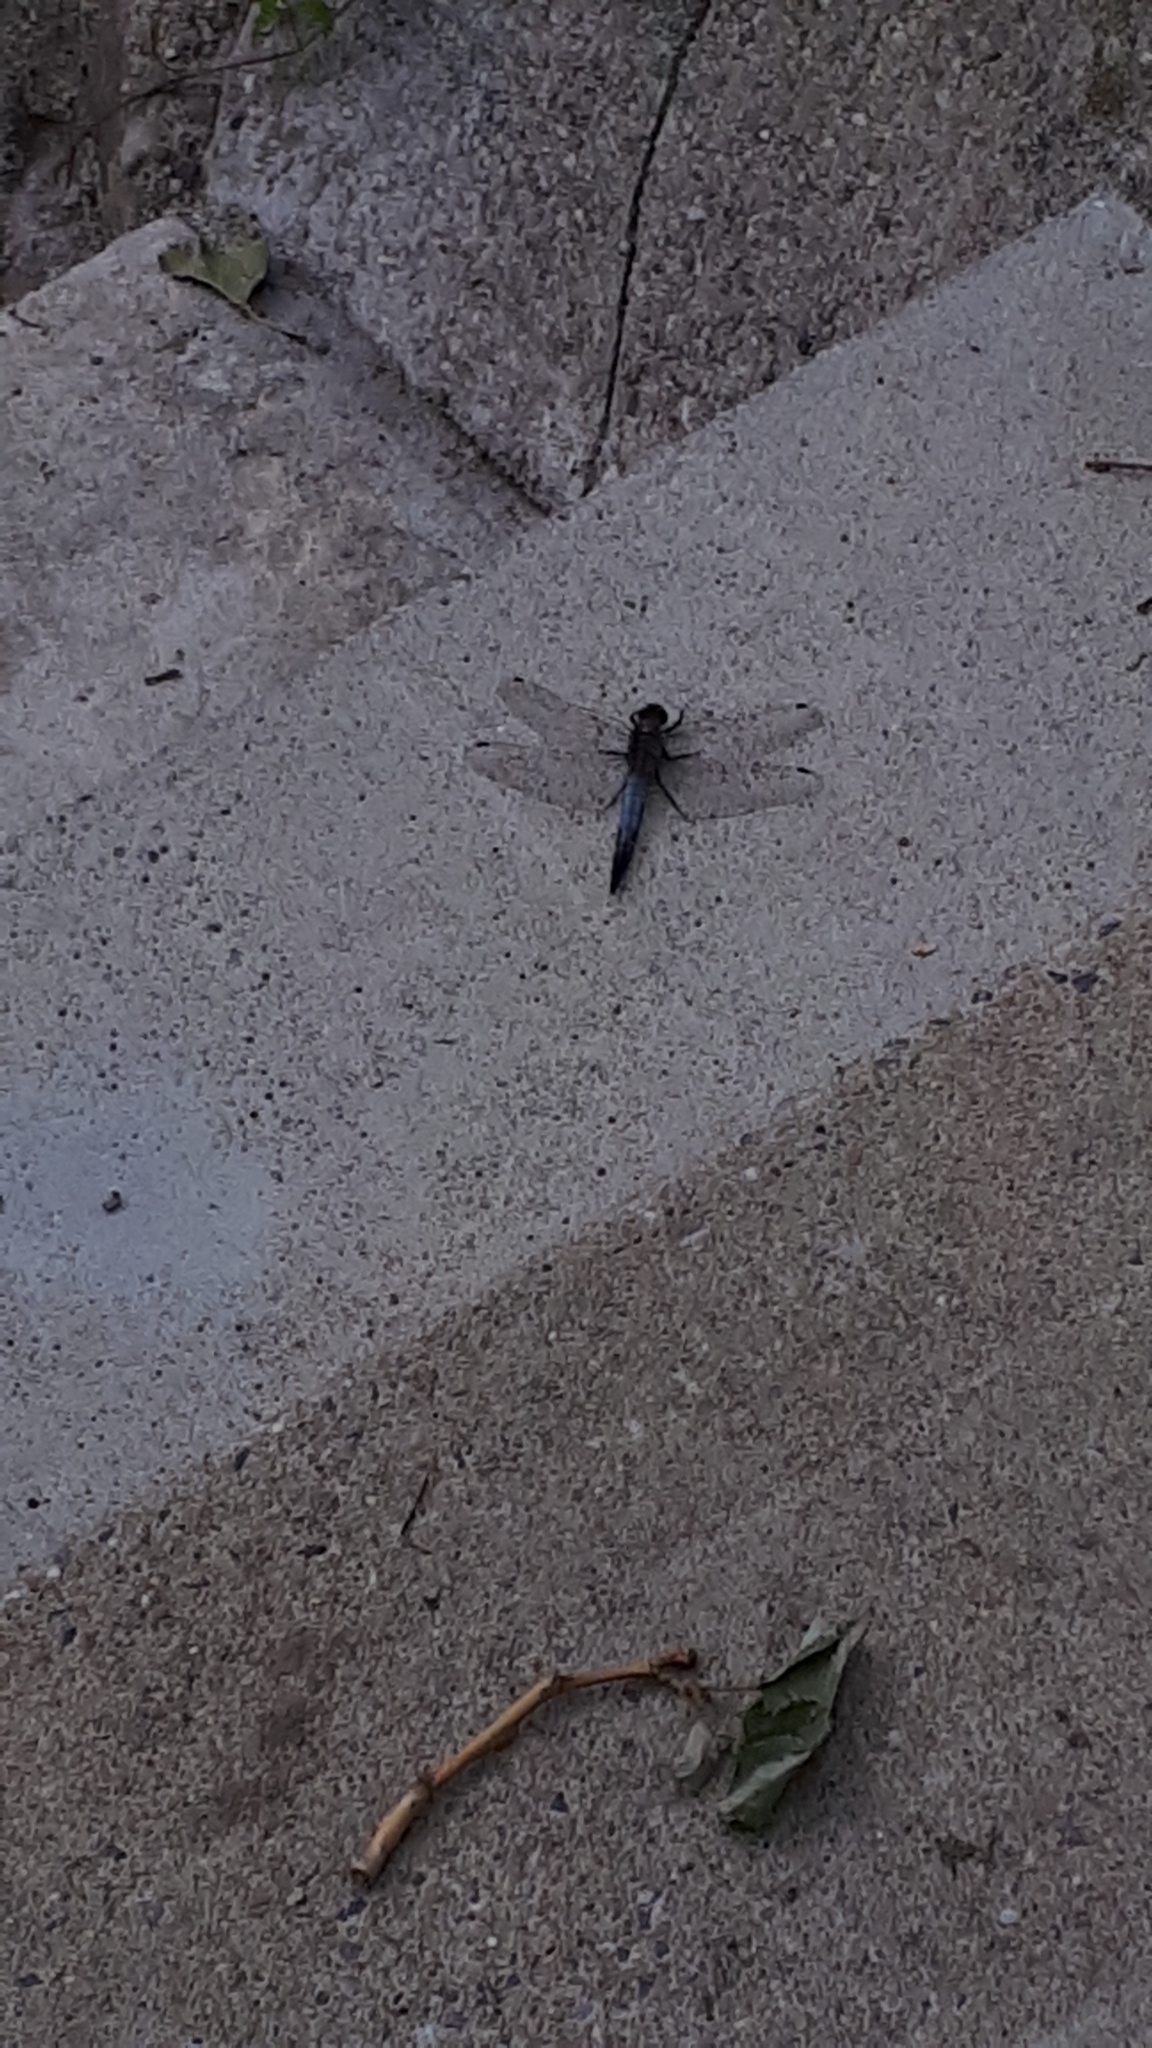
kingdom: Animalia
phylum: Arthropoda
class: Insecta
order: Odonata
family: Libellulidae
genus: Orthetrum
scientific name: Orthetrum cancellatum
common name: Black-tailed skimmer
